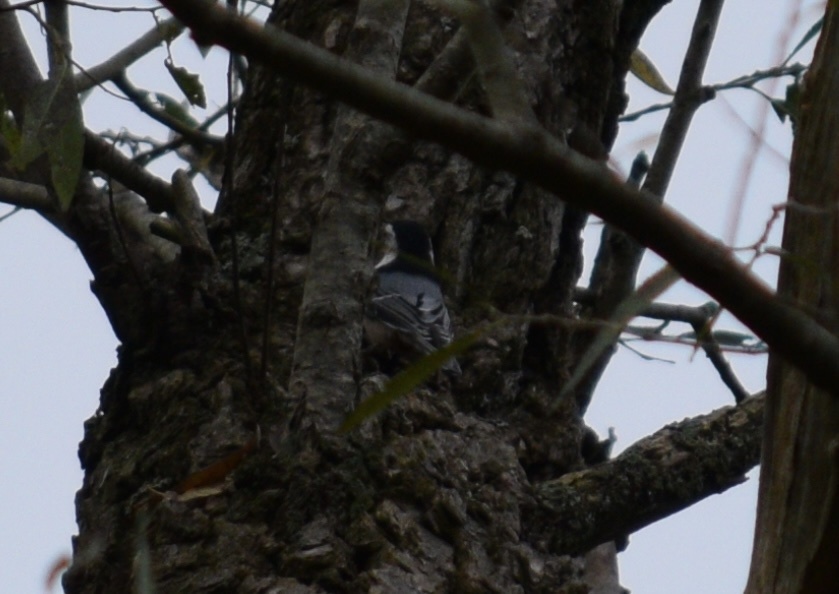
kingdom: Animalia
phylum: Chordata
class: Aves
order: Passeriformes
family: Sittidae
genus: Sitta
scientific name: Sitta carolinensis
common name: White-breasted nuthatch
